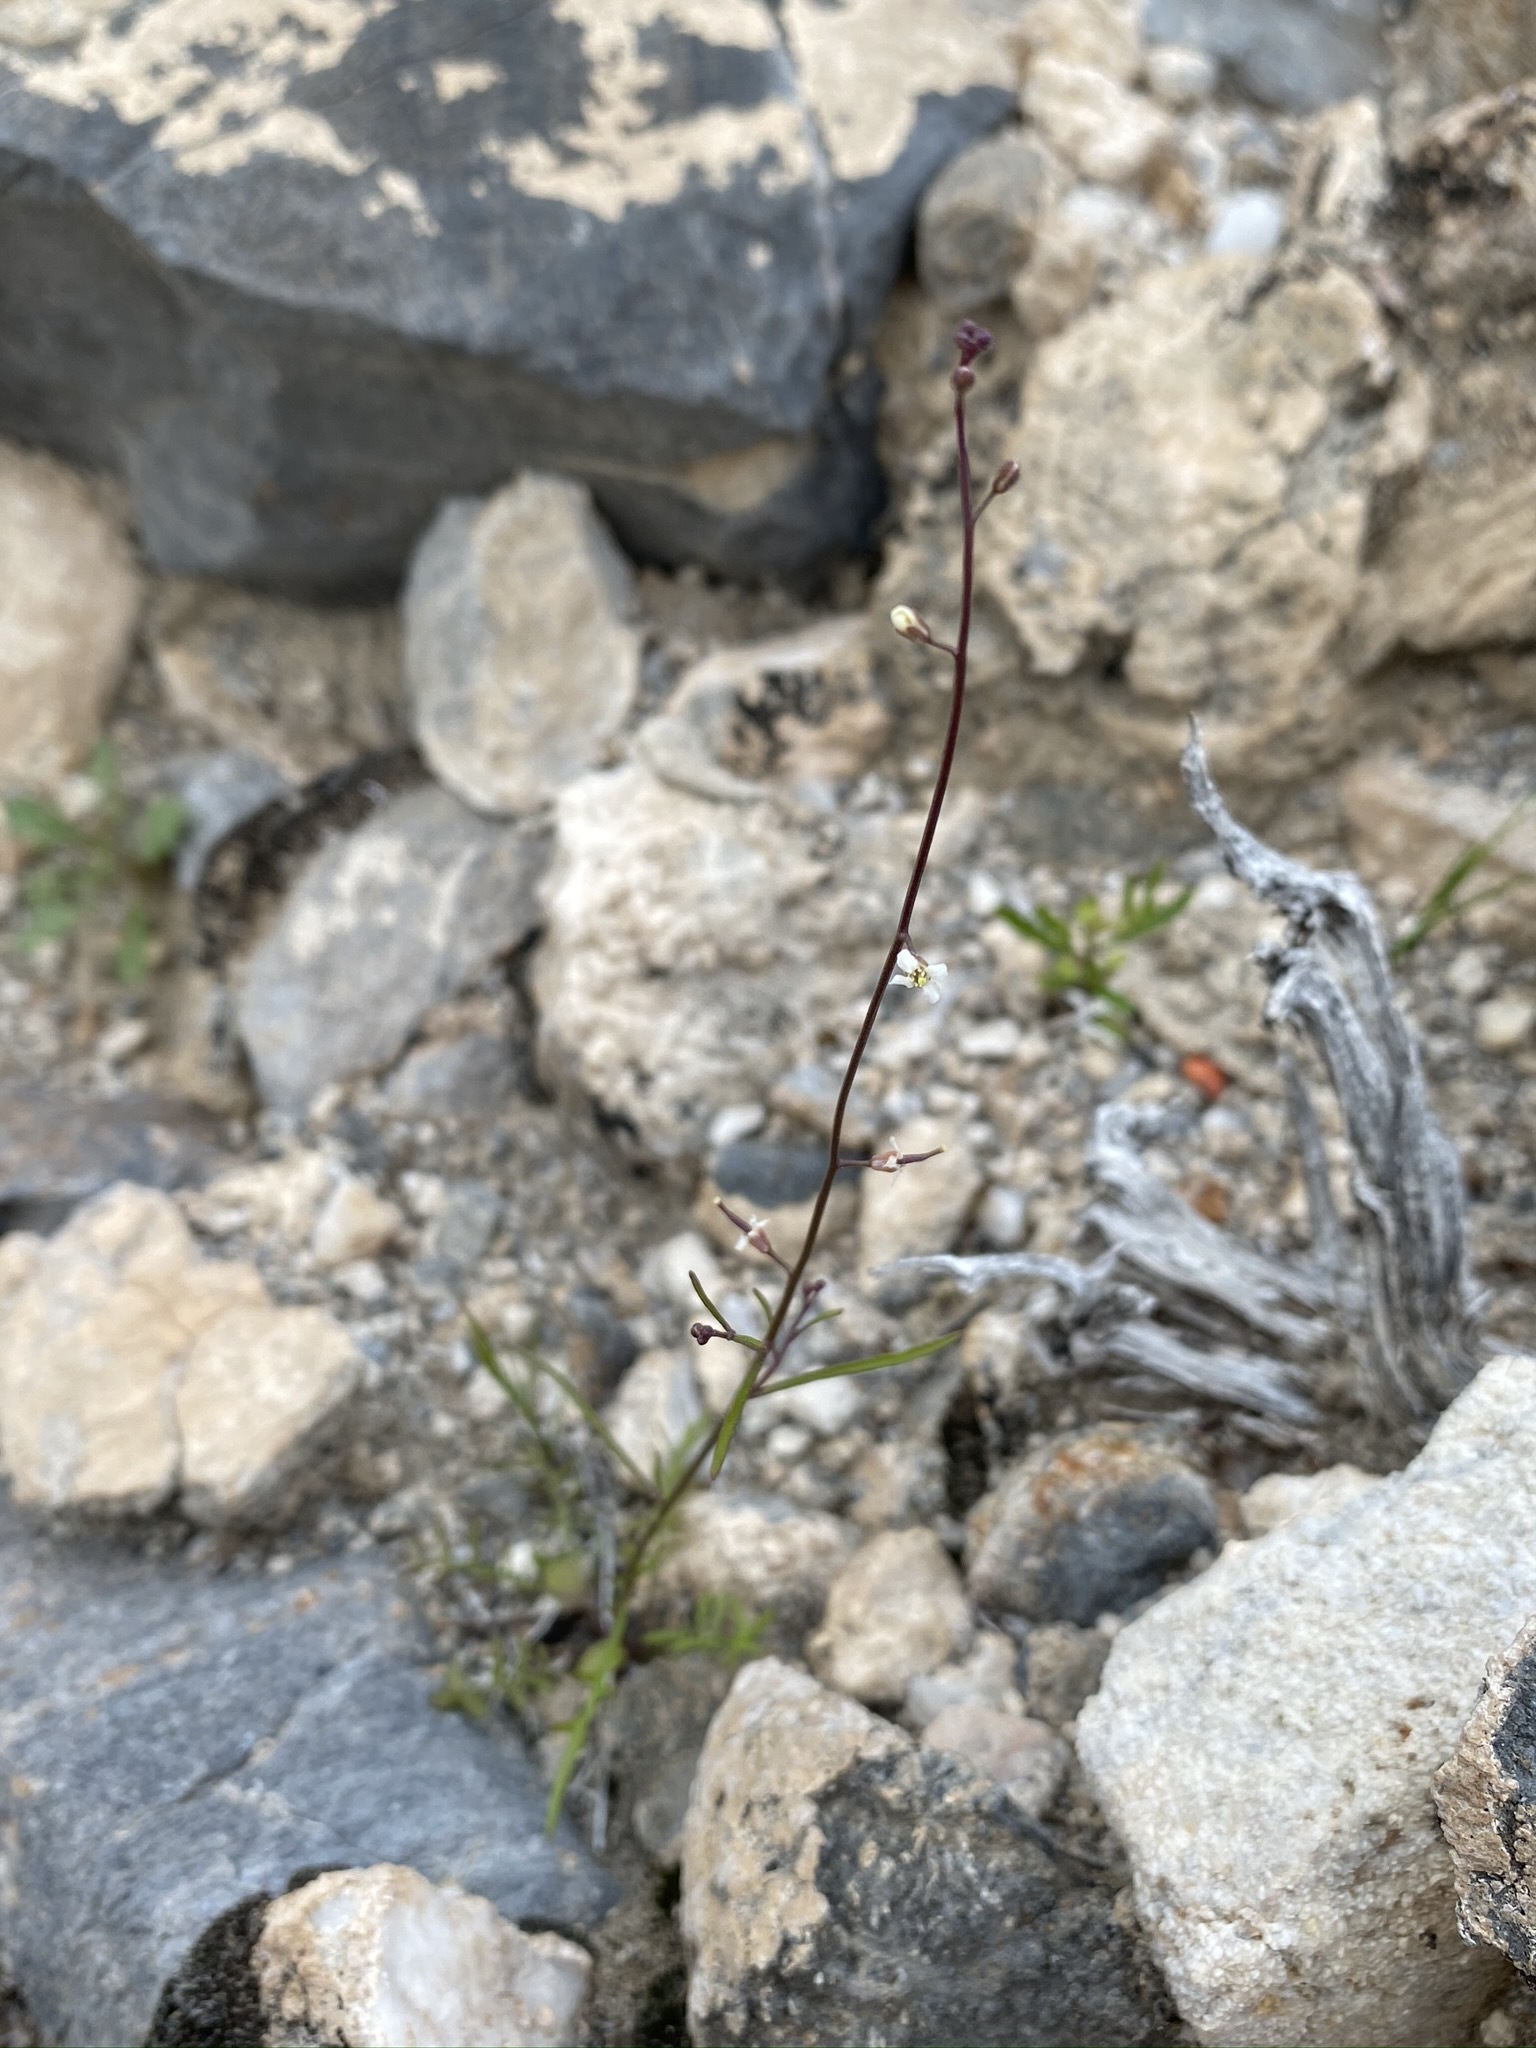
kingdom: Plantae
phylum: Tracheophyta
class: Magnoliopsida
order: Brassicales
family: Brassicaceae
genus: Sibara
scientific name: Sibara deserti
